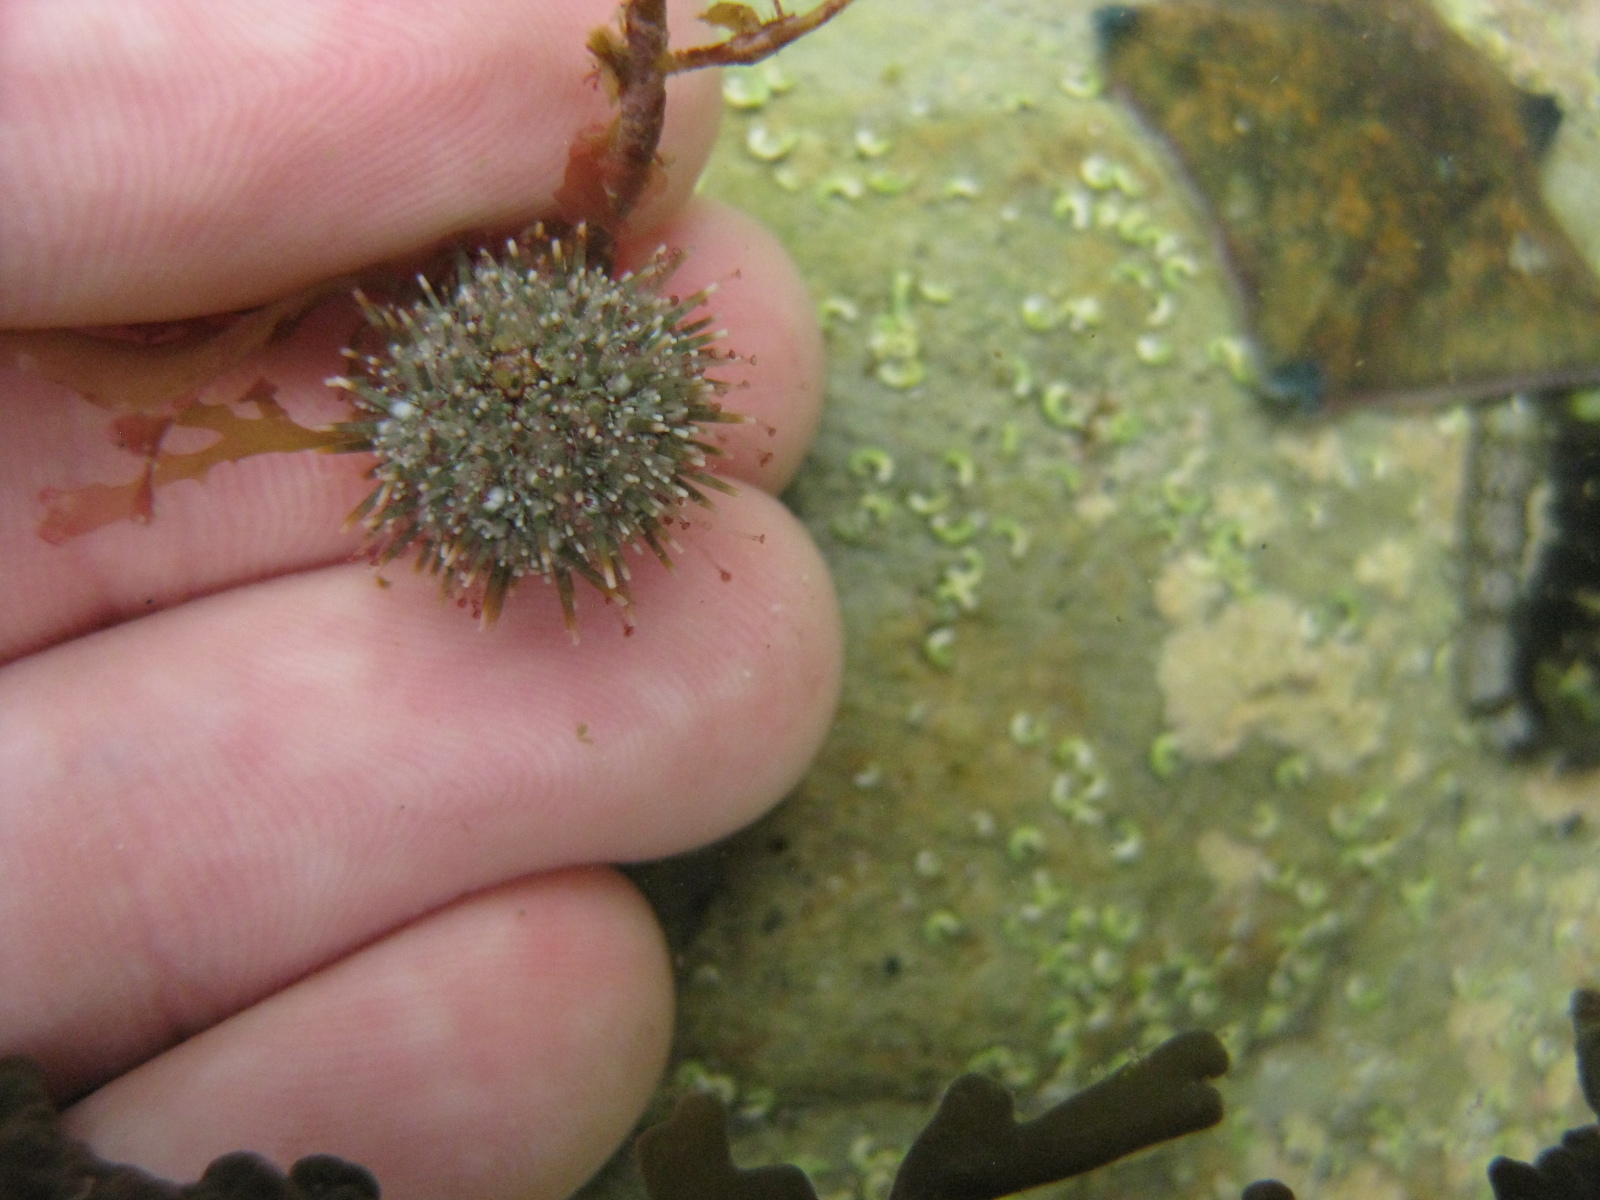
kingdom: Animalia
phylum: Echinodermata
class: Echinoidea
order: Camarodonta
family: Echinometridae
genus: Evechinus
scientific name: Evechinus chloroticus
